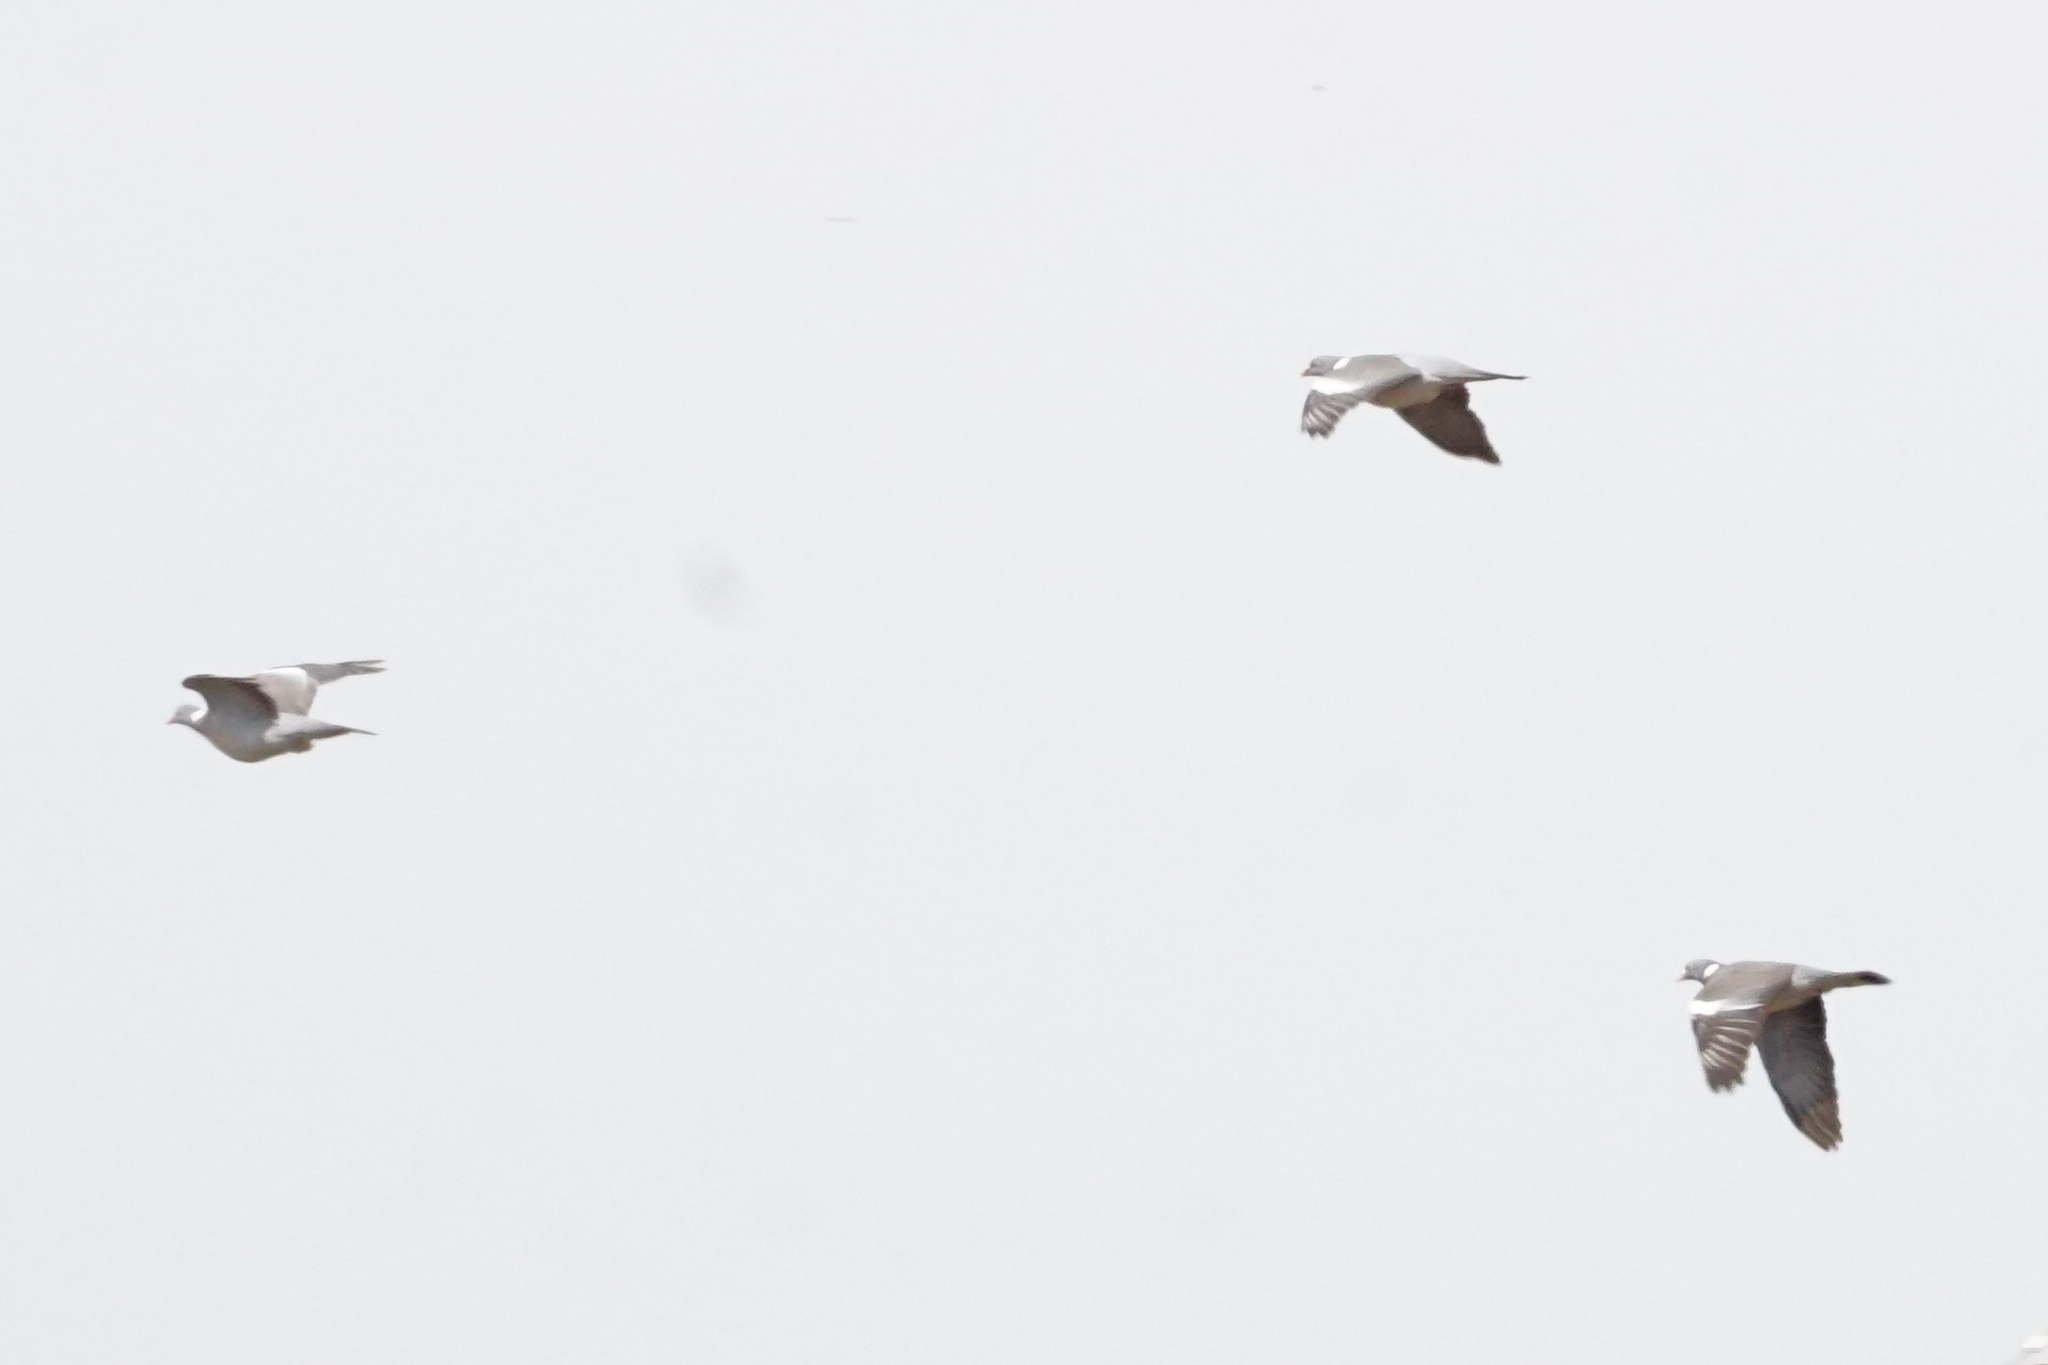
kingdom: Animalia
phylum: Chordata
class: Aves
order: Columbiformes
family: Columbidae
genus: Columba
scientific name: Columba palumbus
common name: Common wood pigeon
